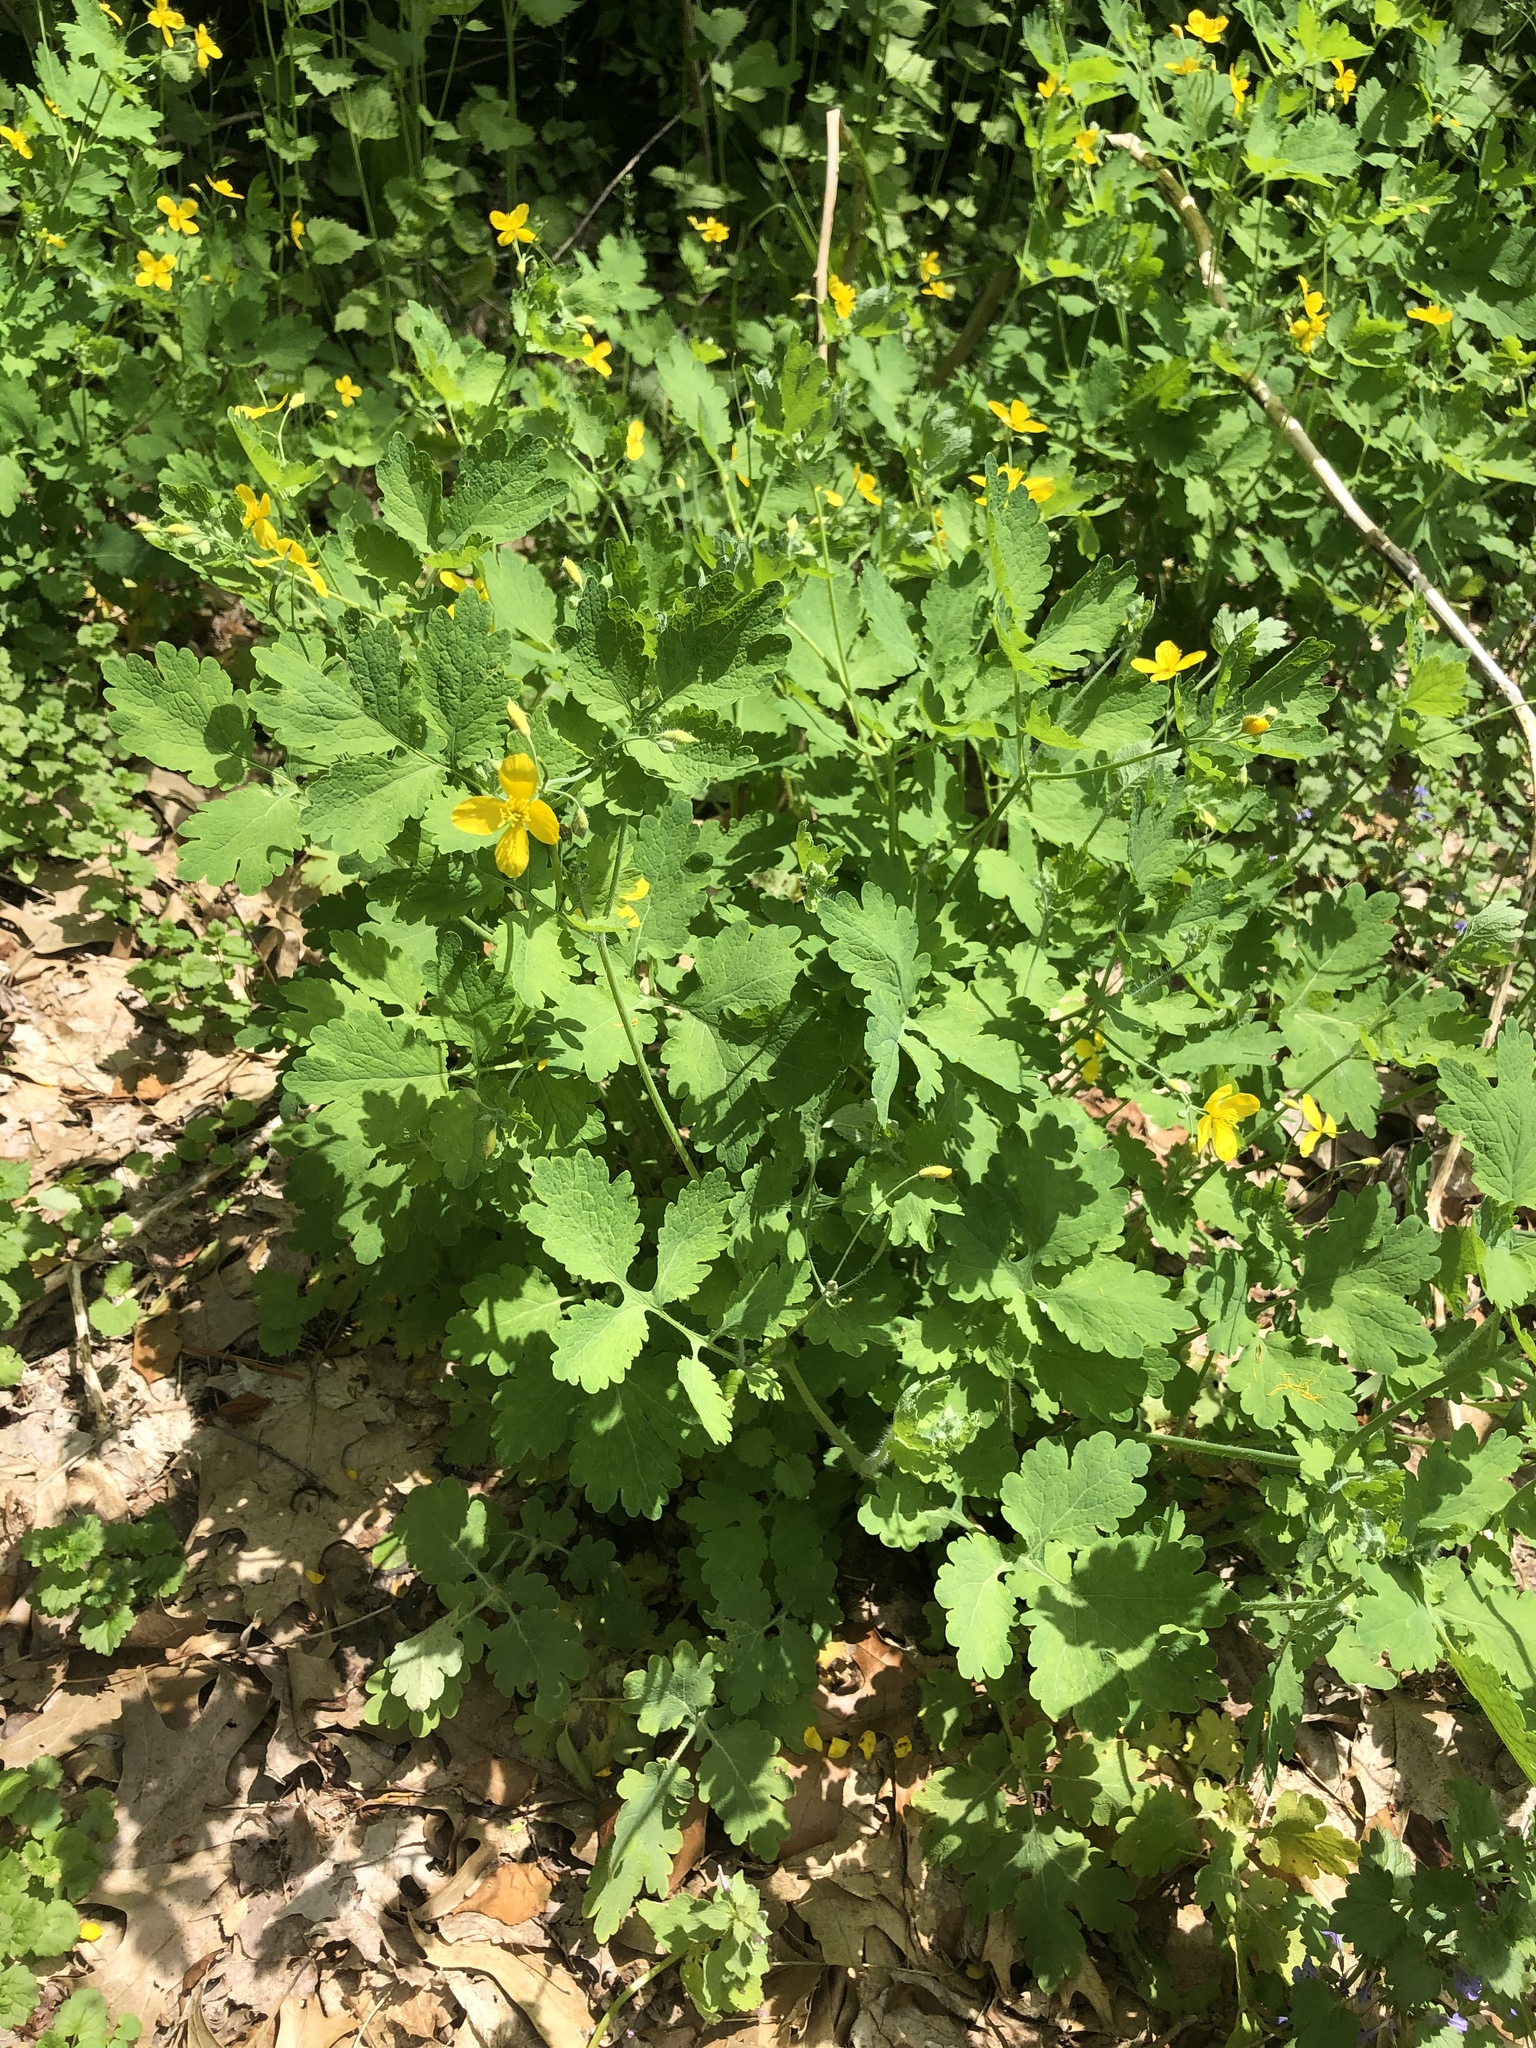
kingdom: Plantae
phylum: Tracheophyta
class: Magnoliopsida
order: Ranunculales
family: Papaveraceae
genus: Chelidonium
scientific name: Chelidonium majus
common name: Greater celandine
